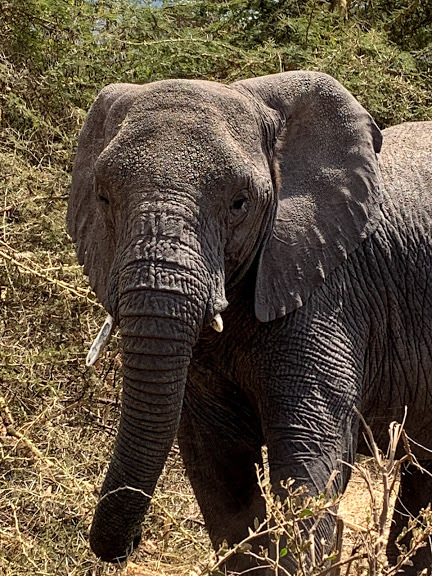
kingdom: Animalia
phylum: Chordata
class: Mammalia
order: Proboscidea
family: Elephantidae
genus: Loxodonta
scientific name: Loxodonta africana
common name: African elephant
